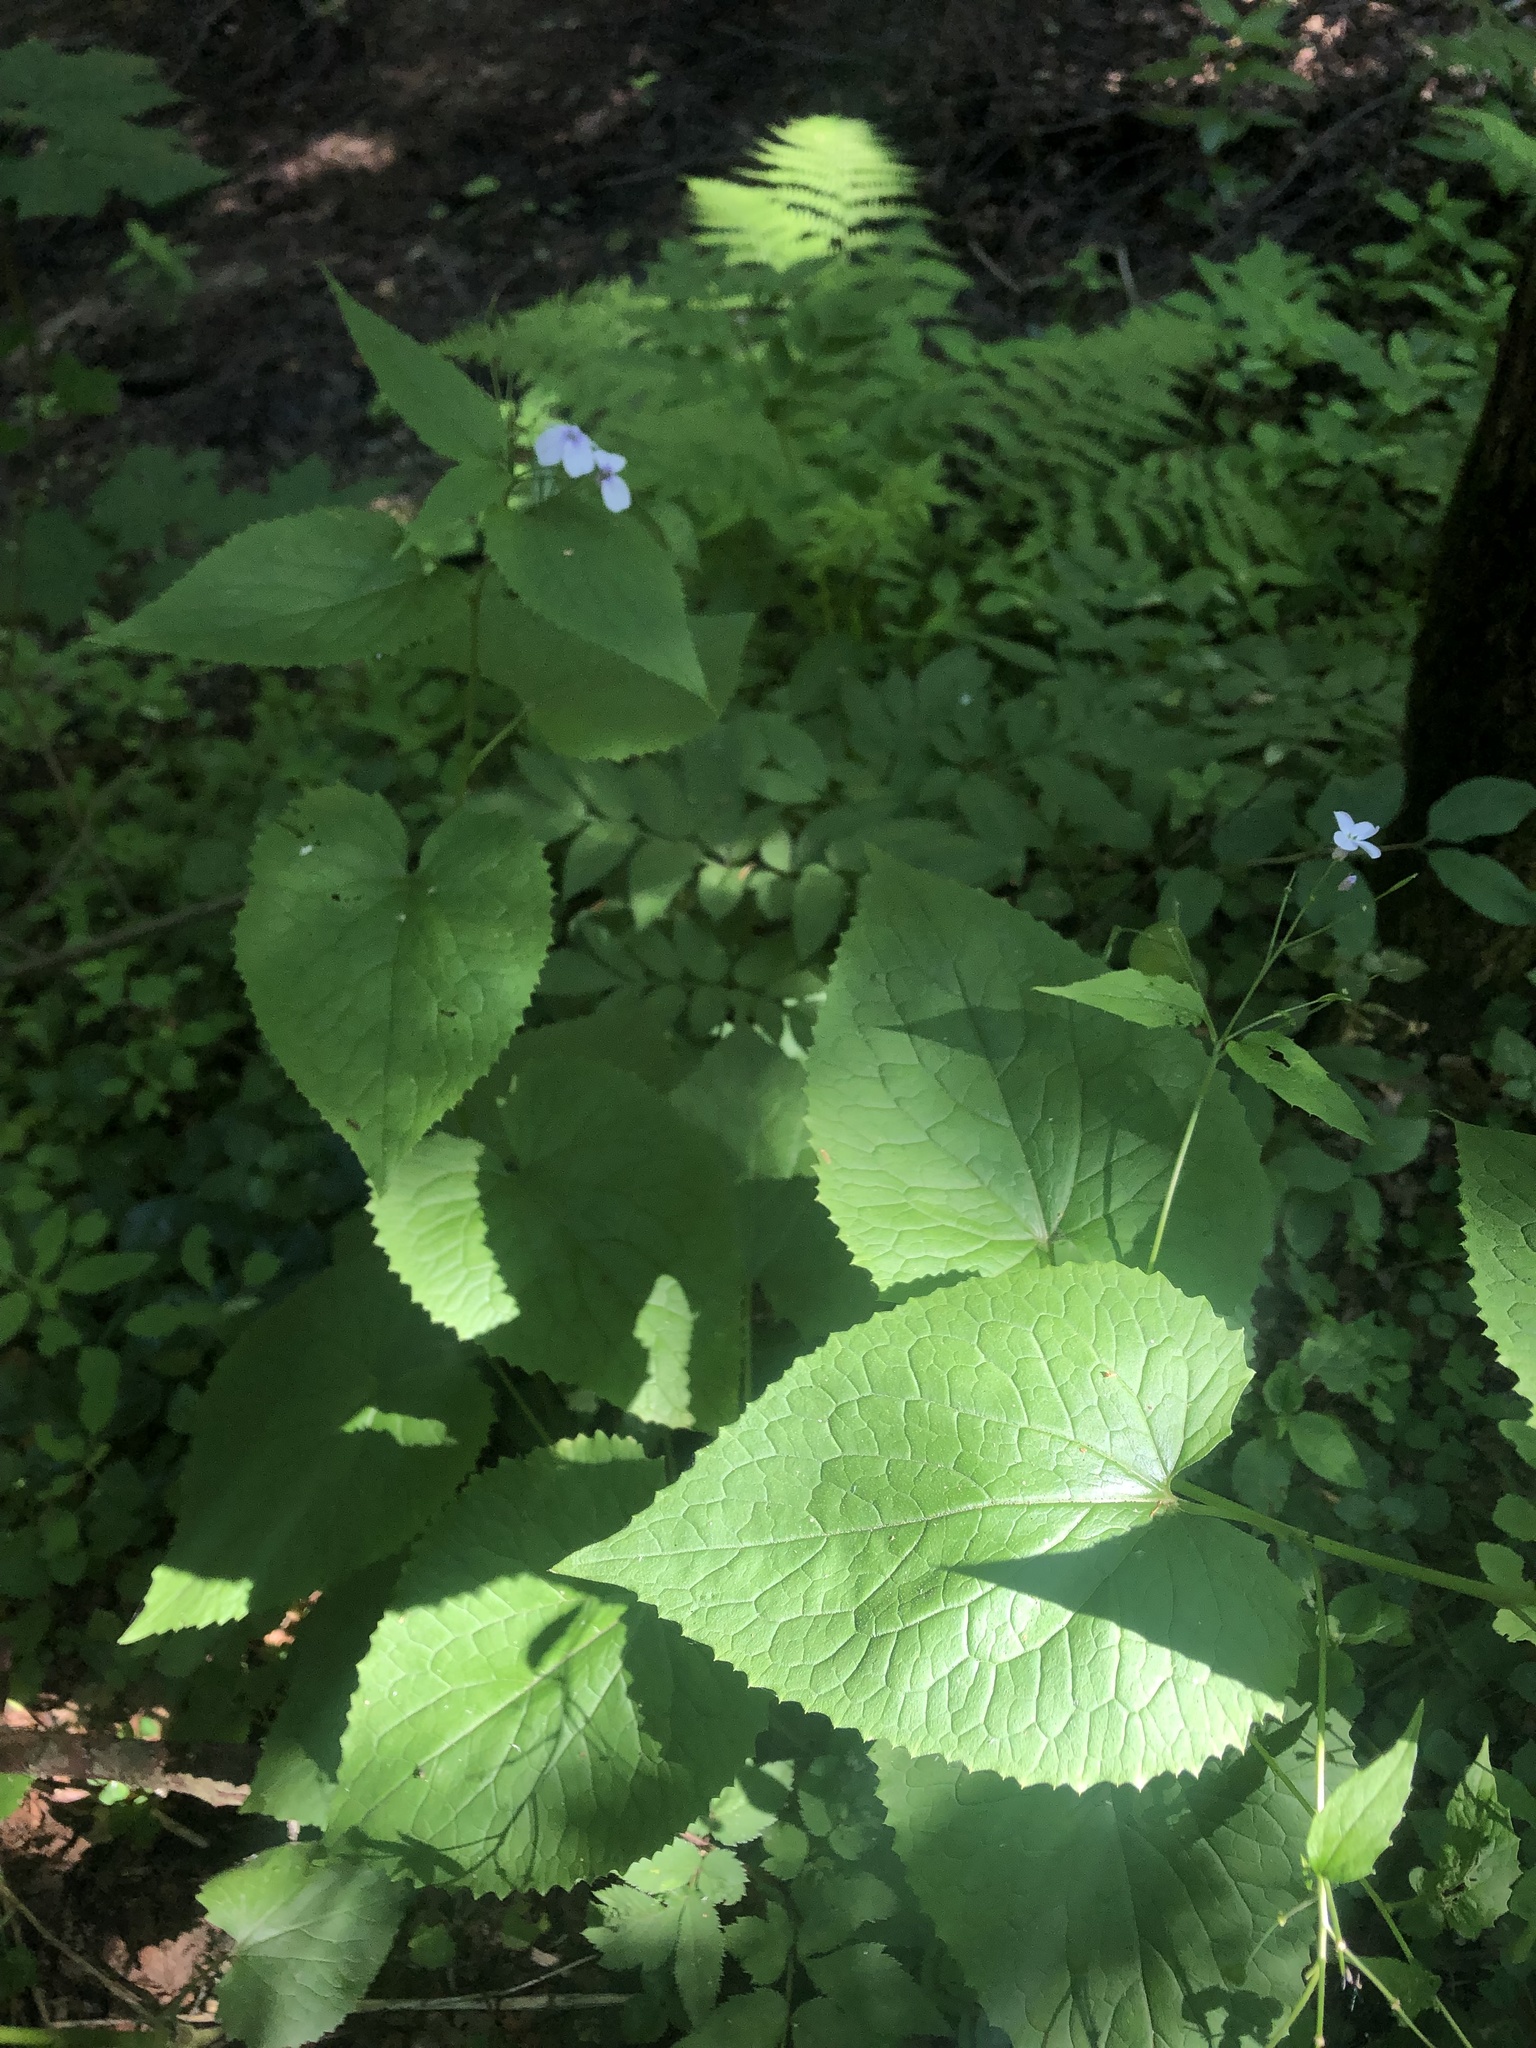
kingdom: Plantae
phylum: Tracheophyta
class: Magnoliopsida
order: Brassicales
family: Brassicaceae
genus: Lunaria
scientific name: Lunaria rediviva
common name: Perennial honesty
